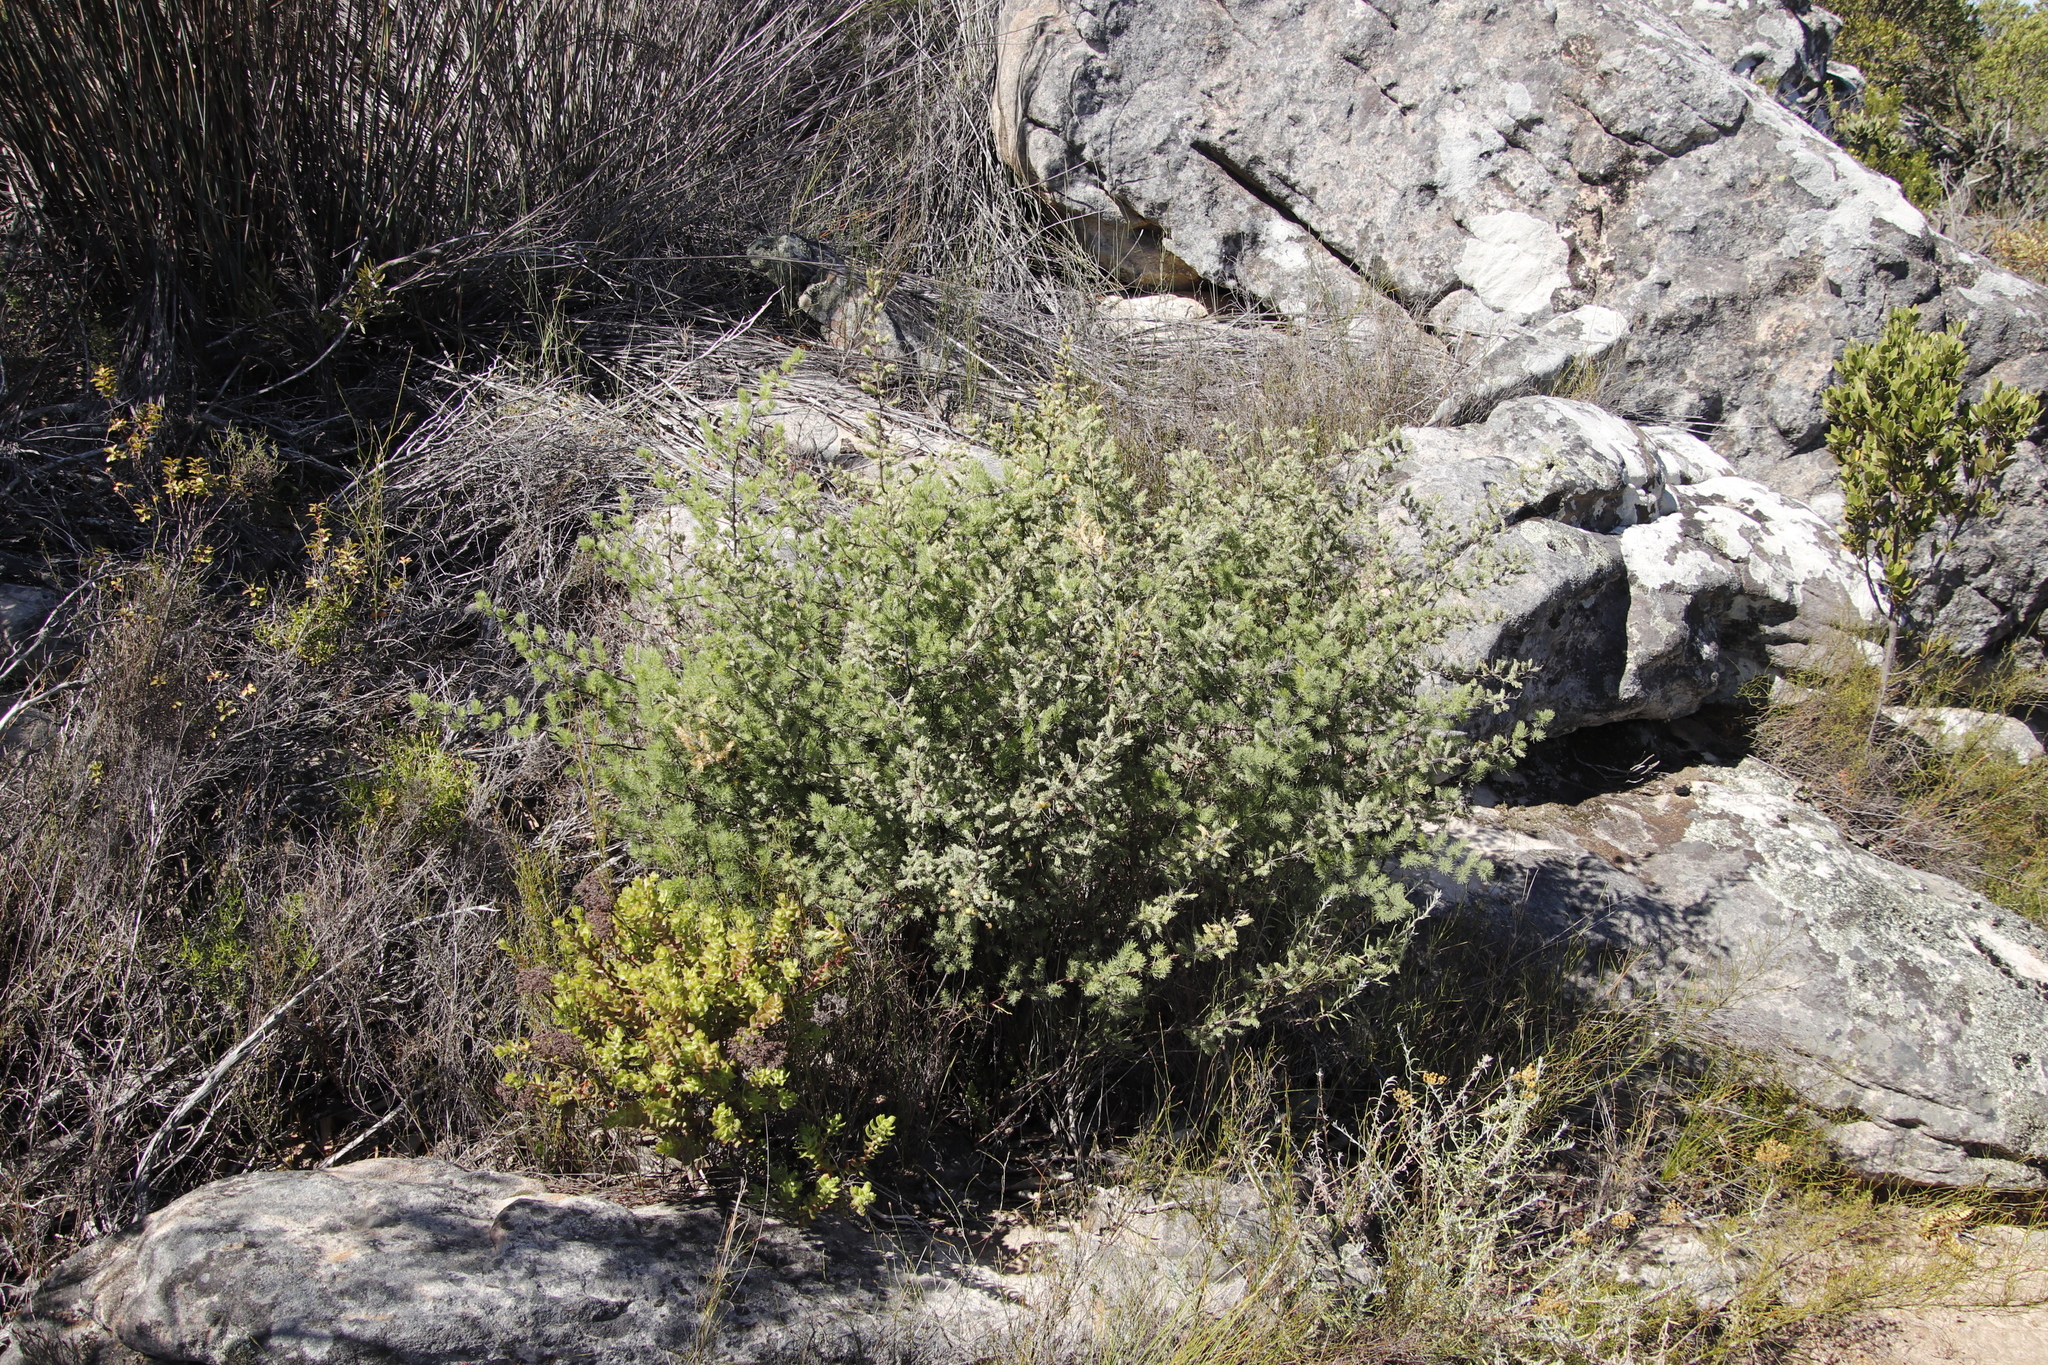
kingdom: Plantae
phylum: Tracheophyta
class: Liliopsida
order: Asparagales
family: Asparagaceae
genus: Asparagus
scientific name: Asparagus rubicundus
